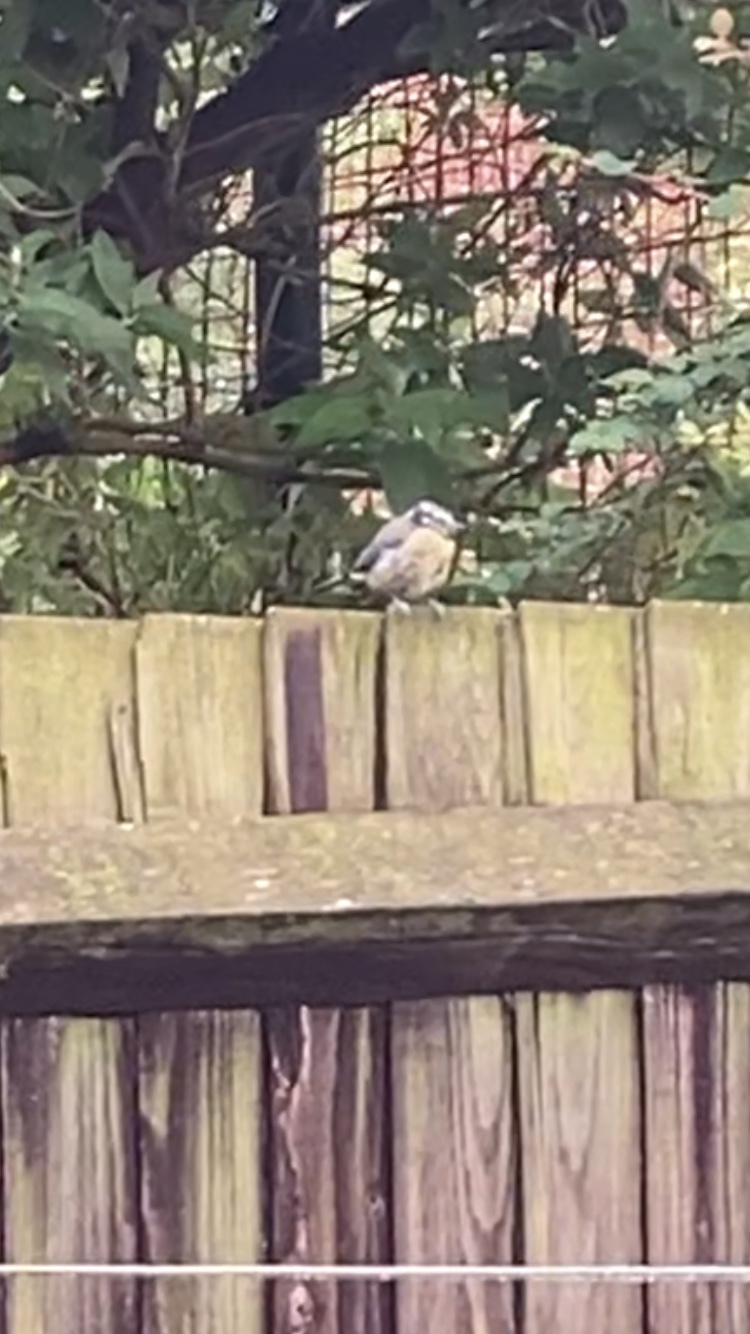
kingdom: Animalia
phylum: Chordata
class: Aves
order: Passeriformes
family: Paridae
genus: Cyanistes
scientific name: Cyanistes caeruleus
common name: Eurasian blue tit
